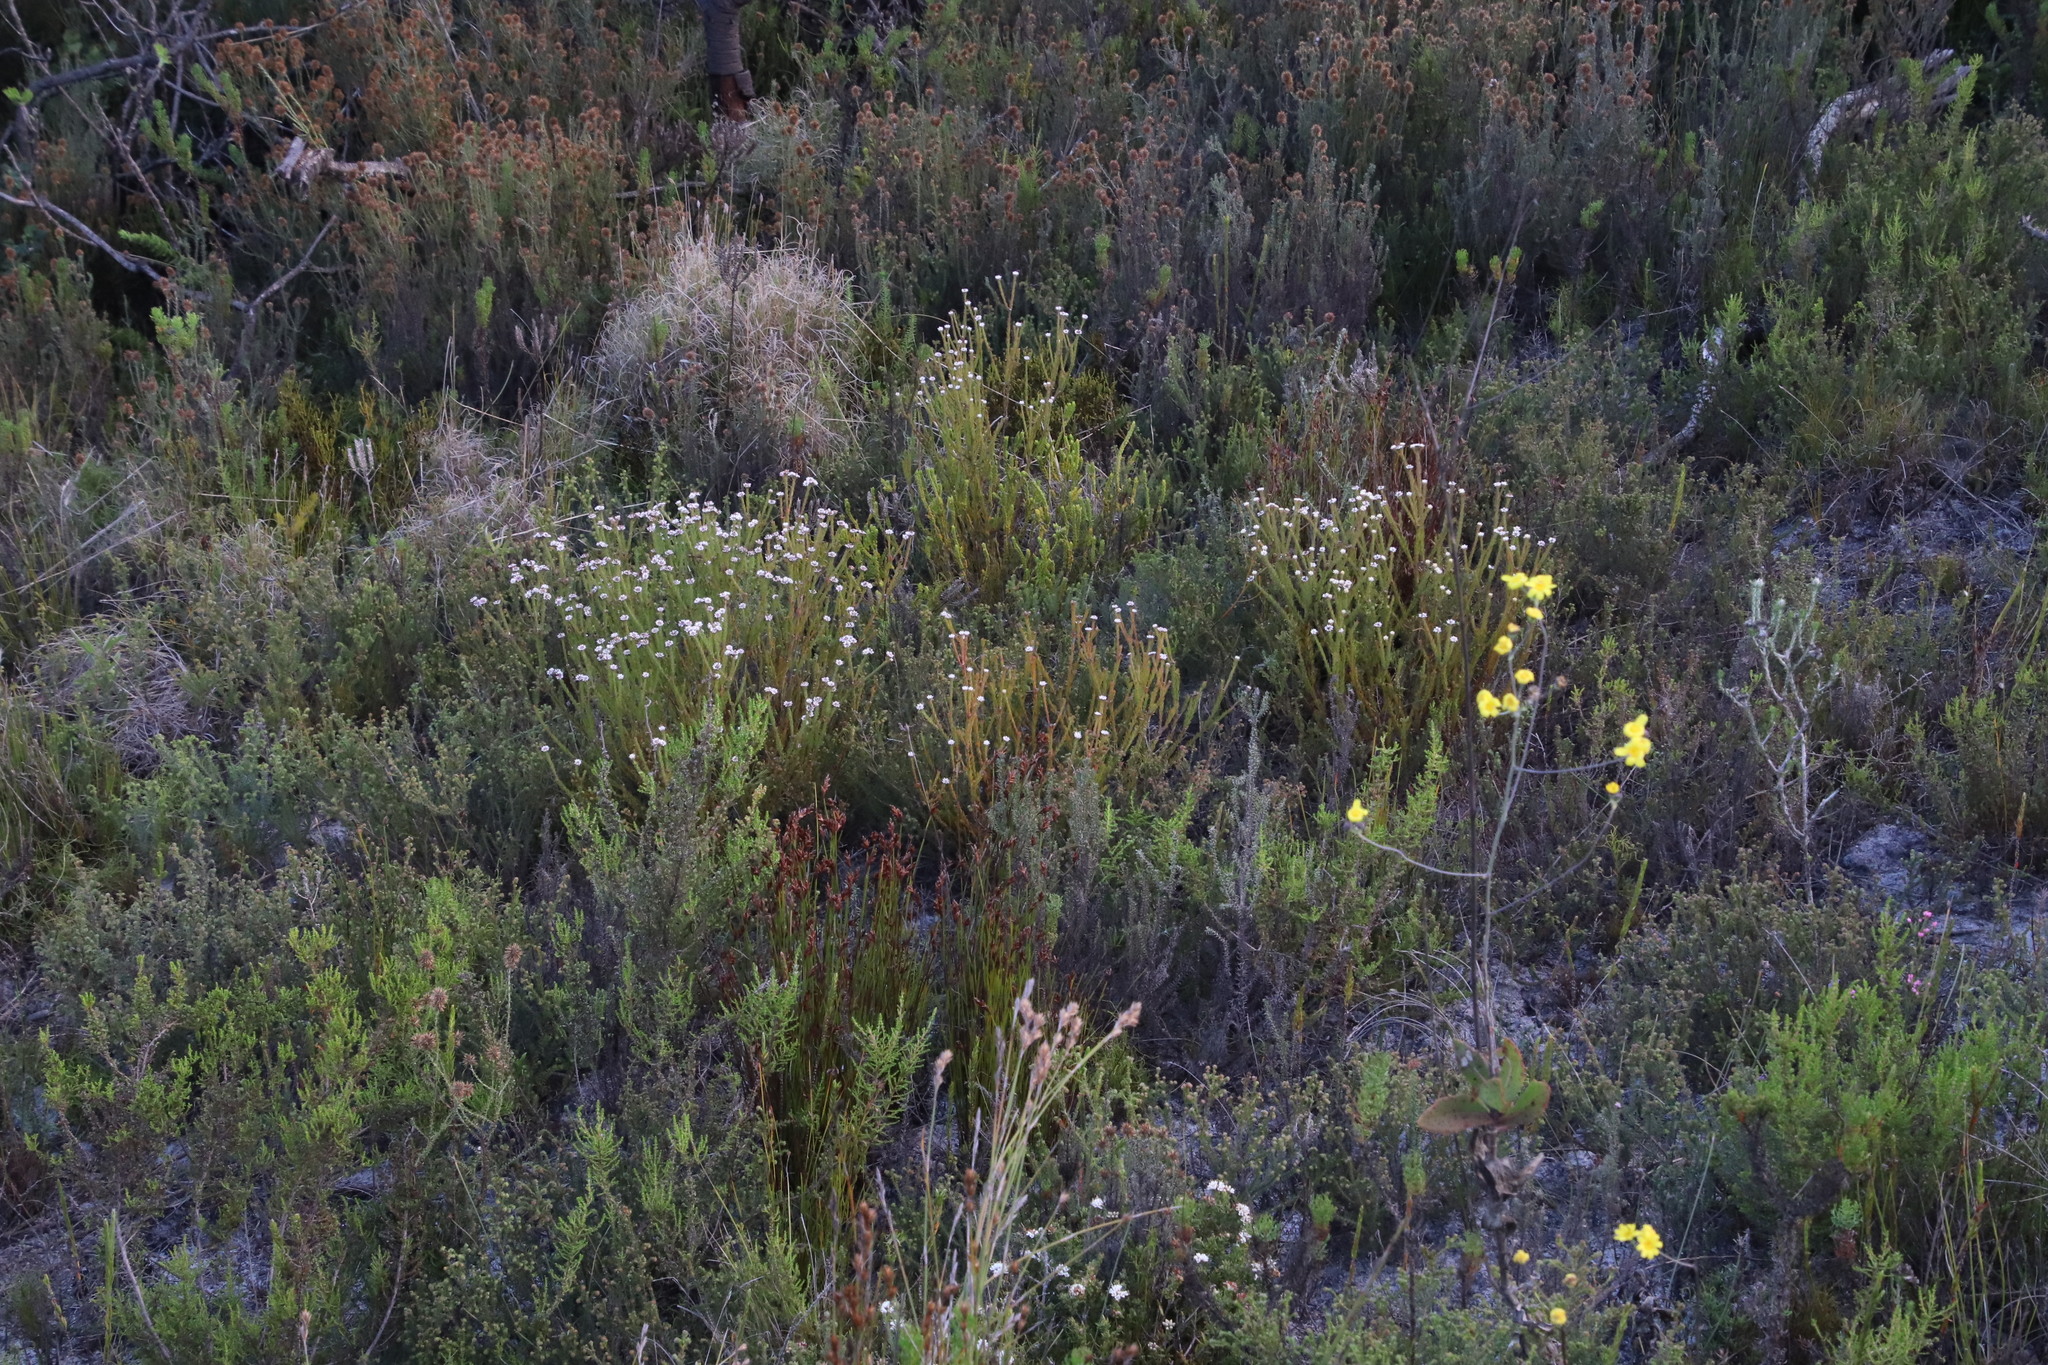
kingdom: Plantae
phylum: Tracheophyta
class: Magnoliopsida
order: Bruniales
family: Bruniaceae
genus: Staavia
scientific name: Staavia radiata
